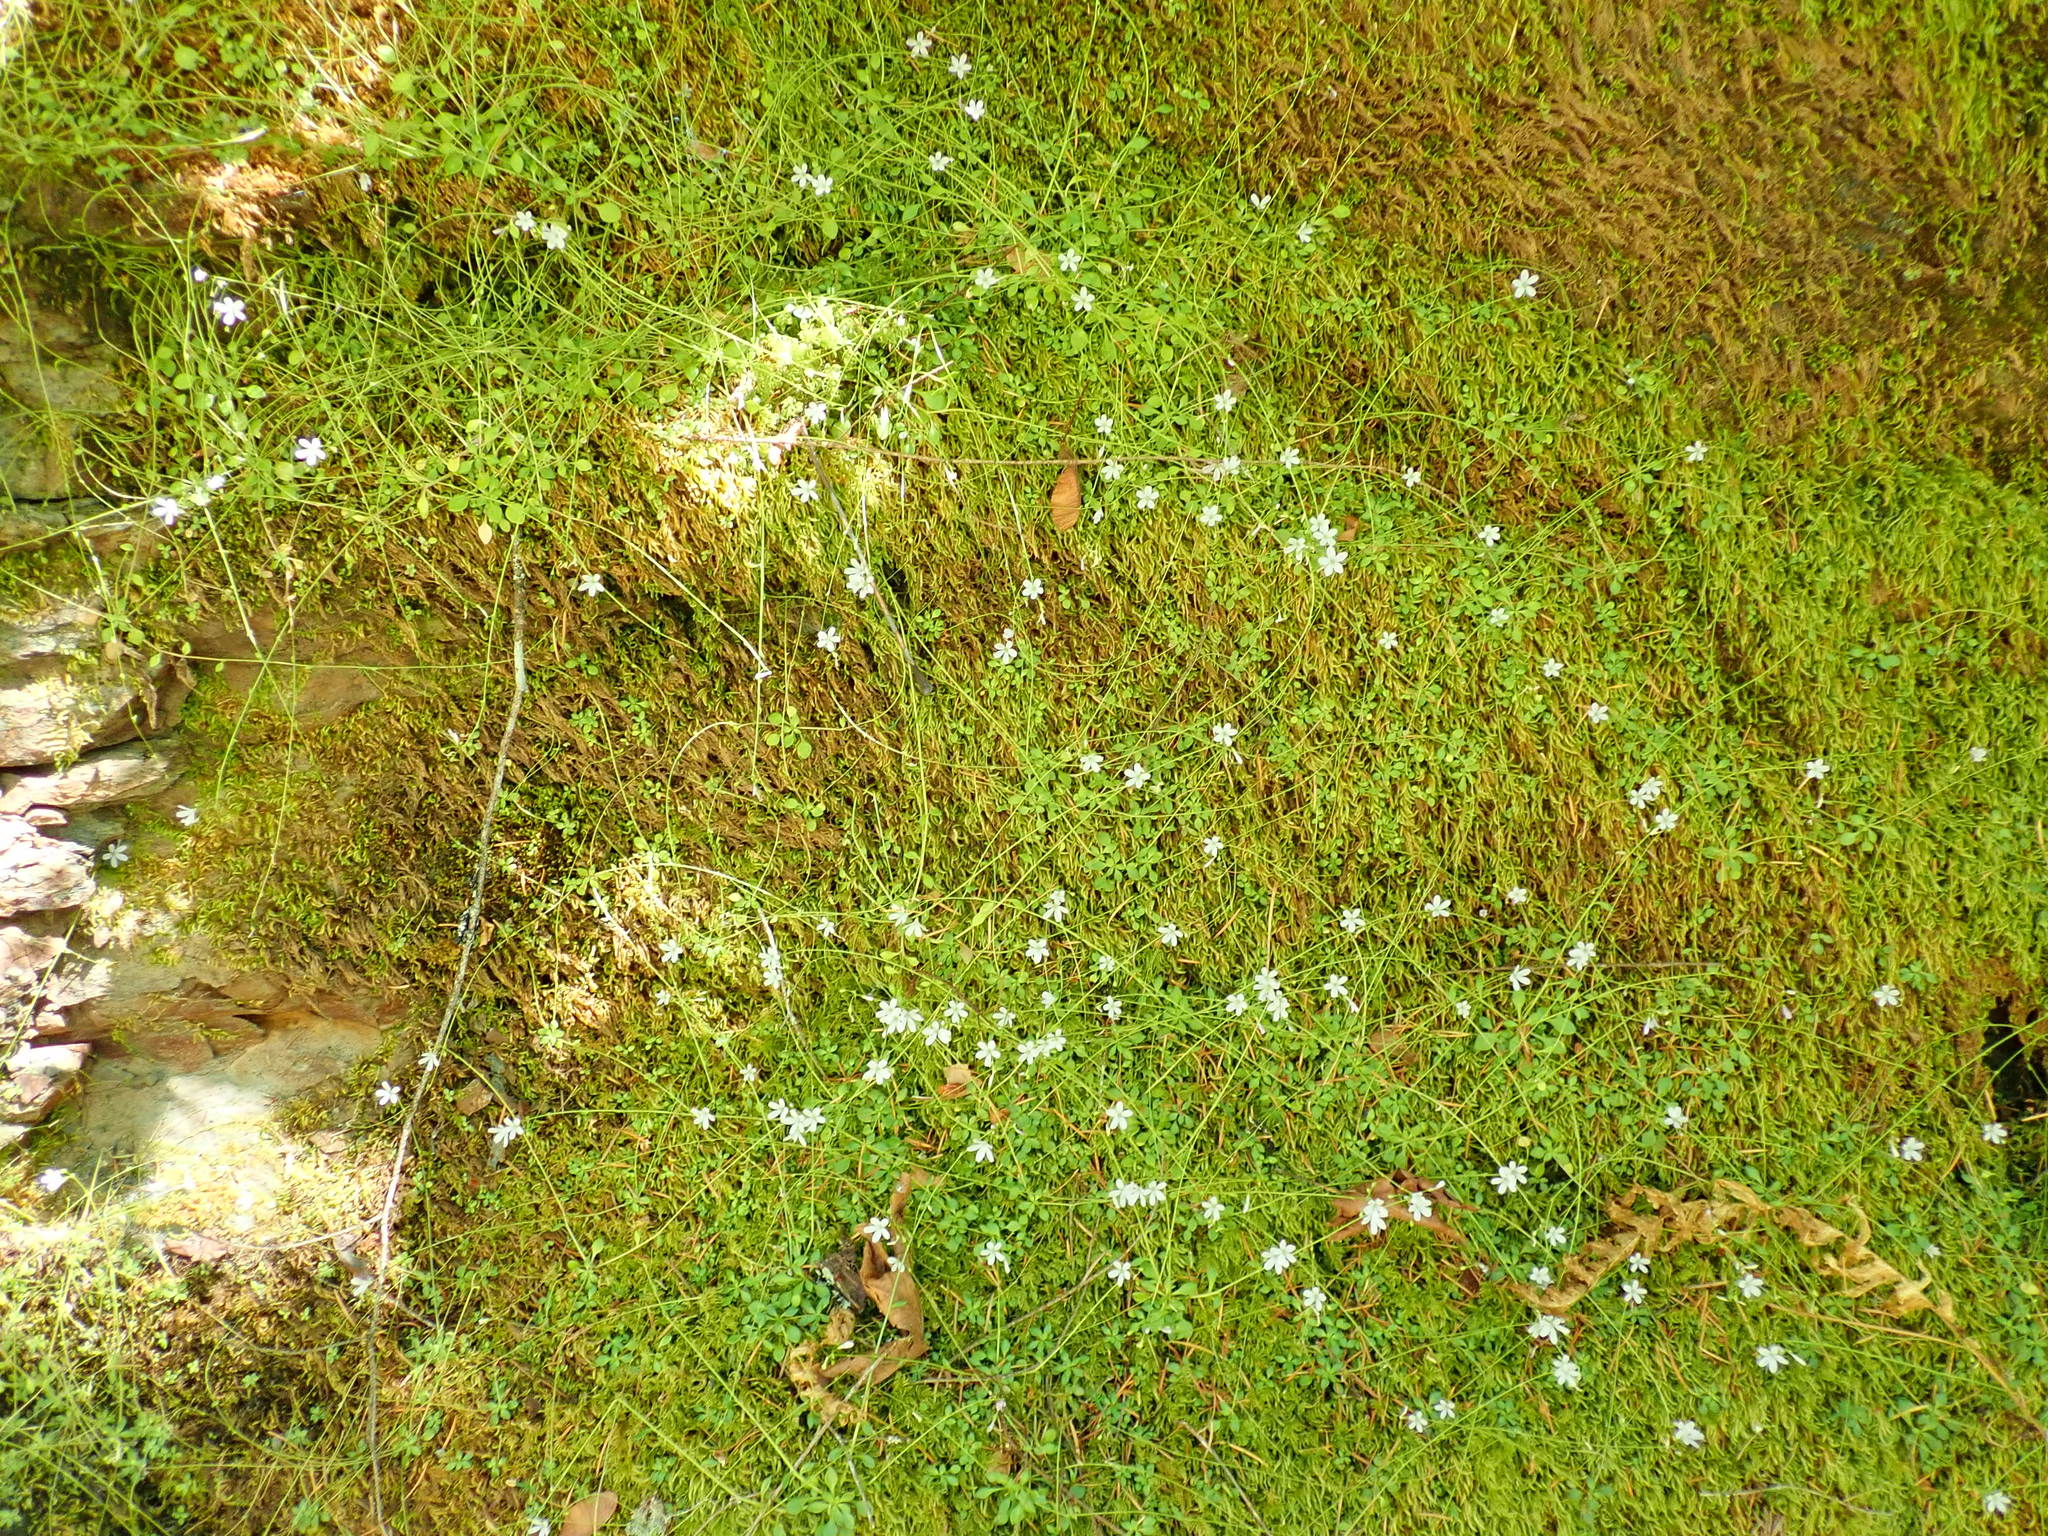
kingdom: Plantae
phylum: Tracheophyta
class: Magnoliopsida
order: Caryophyllales
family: Montiaceae
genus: Montia
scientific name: Montia parvifolia
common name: Small-leaved blinks
